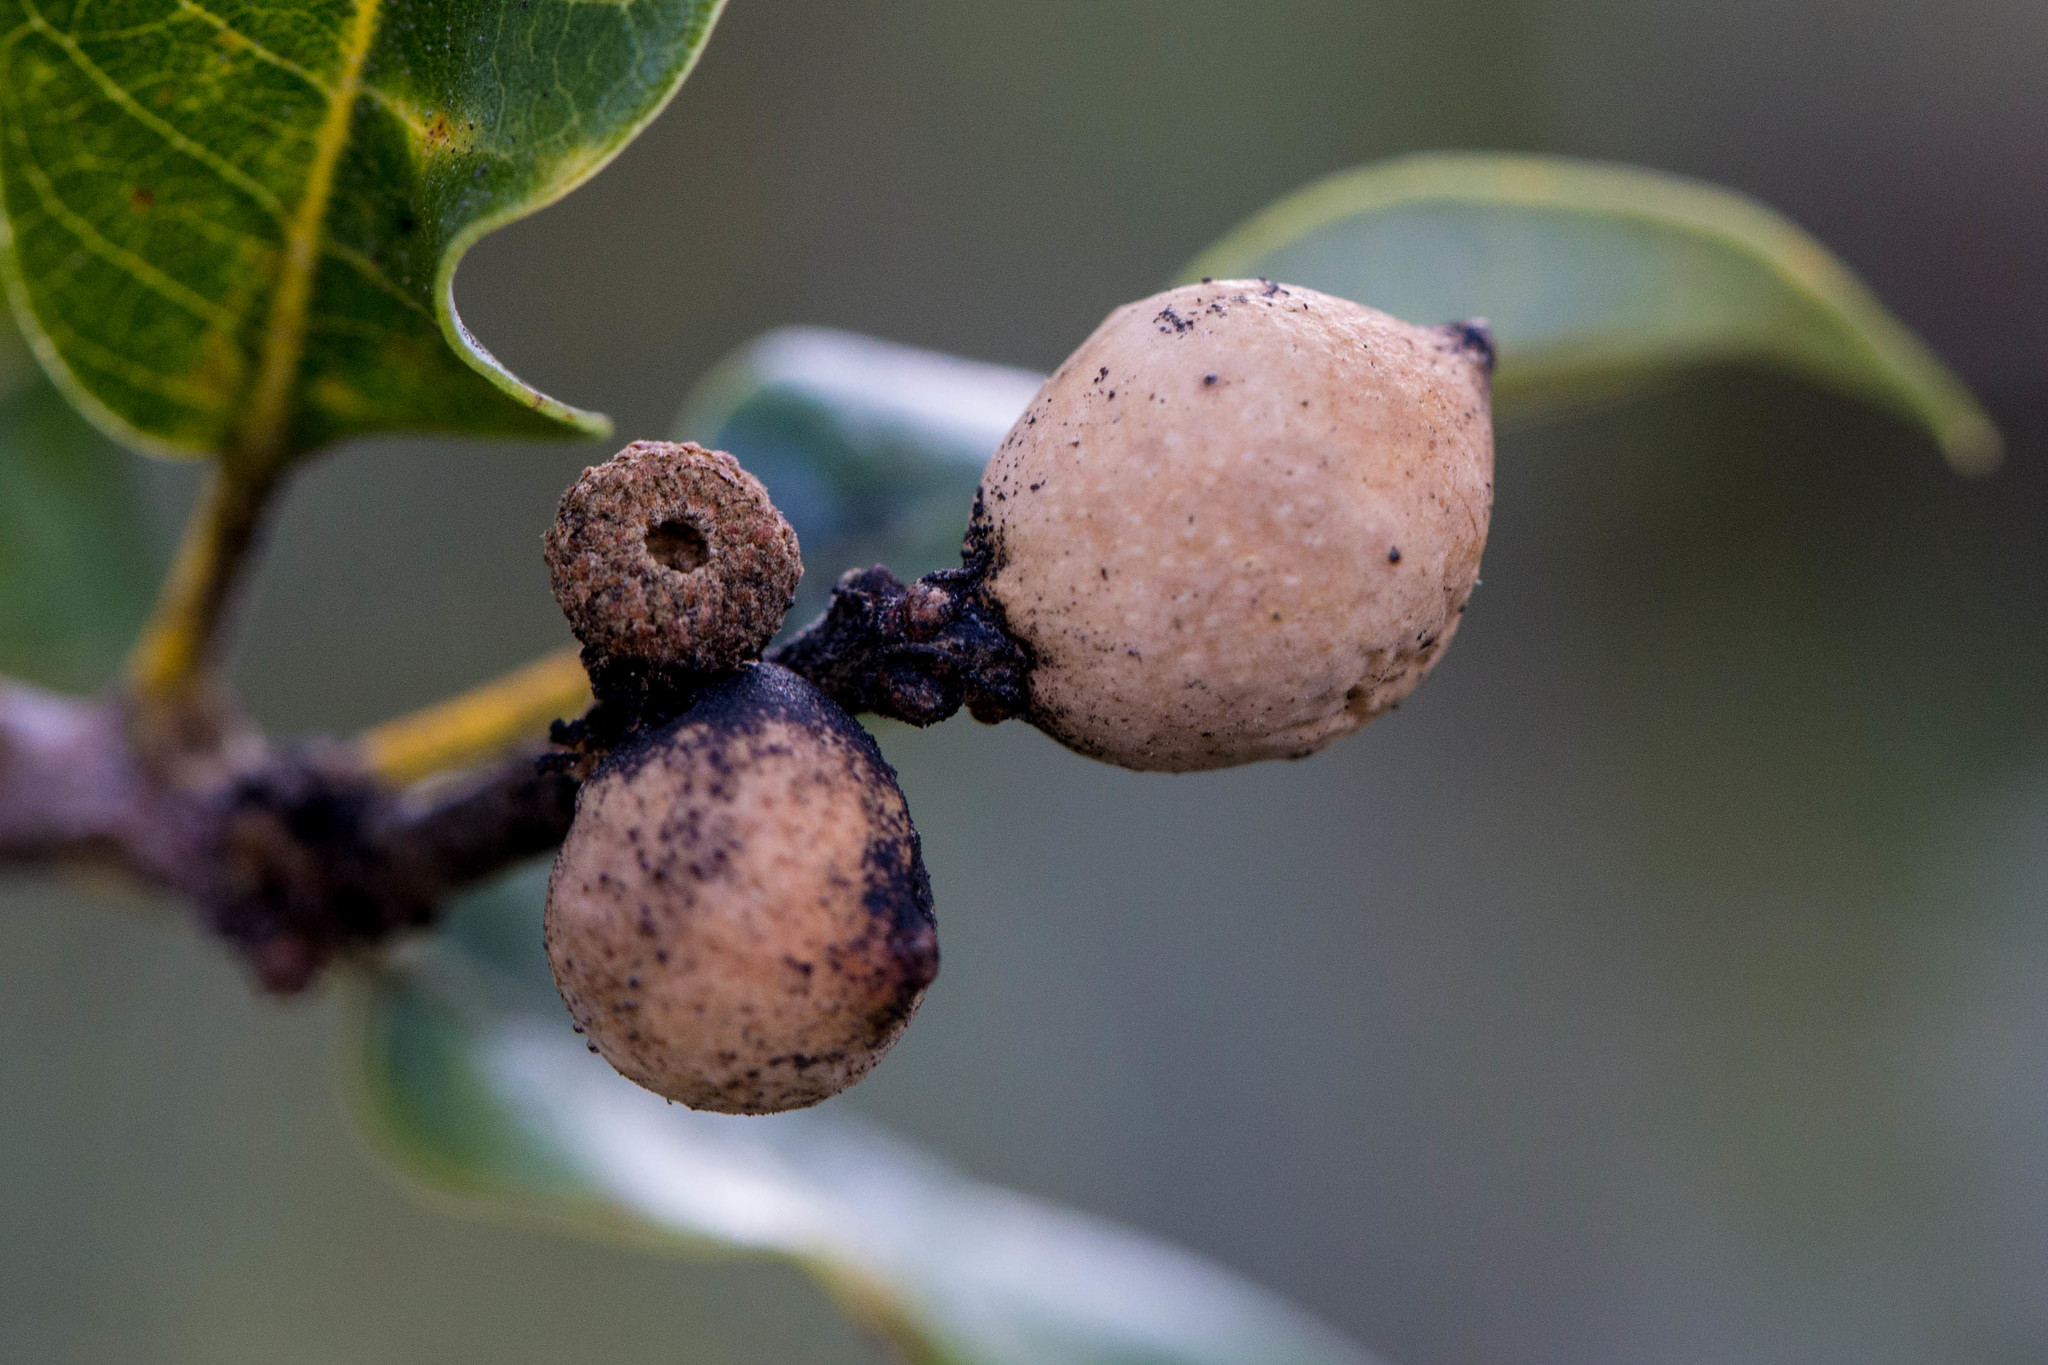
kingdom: Animalia
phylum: Arthropoda
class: Insecta
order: Hymenoptera
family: Cynipidae
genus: Heteroecus
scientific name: Heteroecus pacificus
